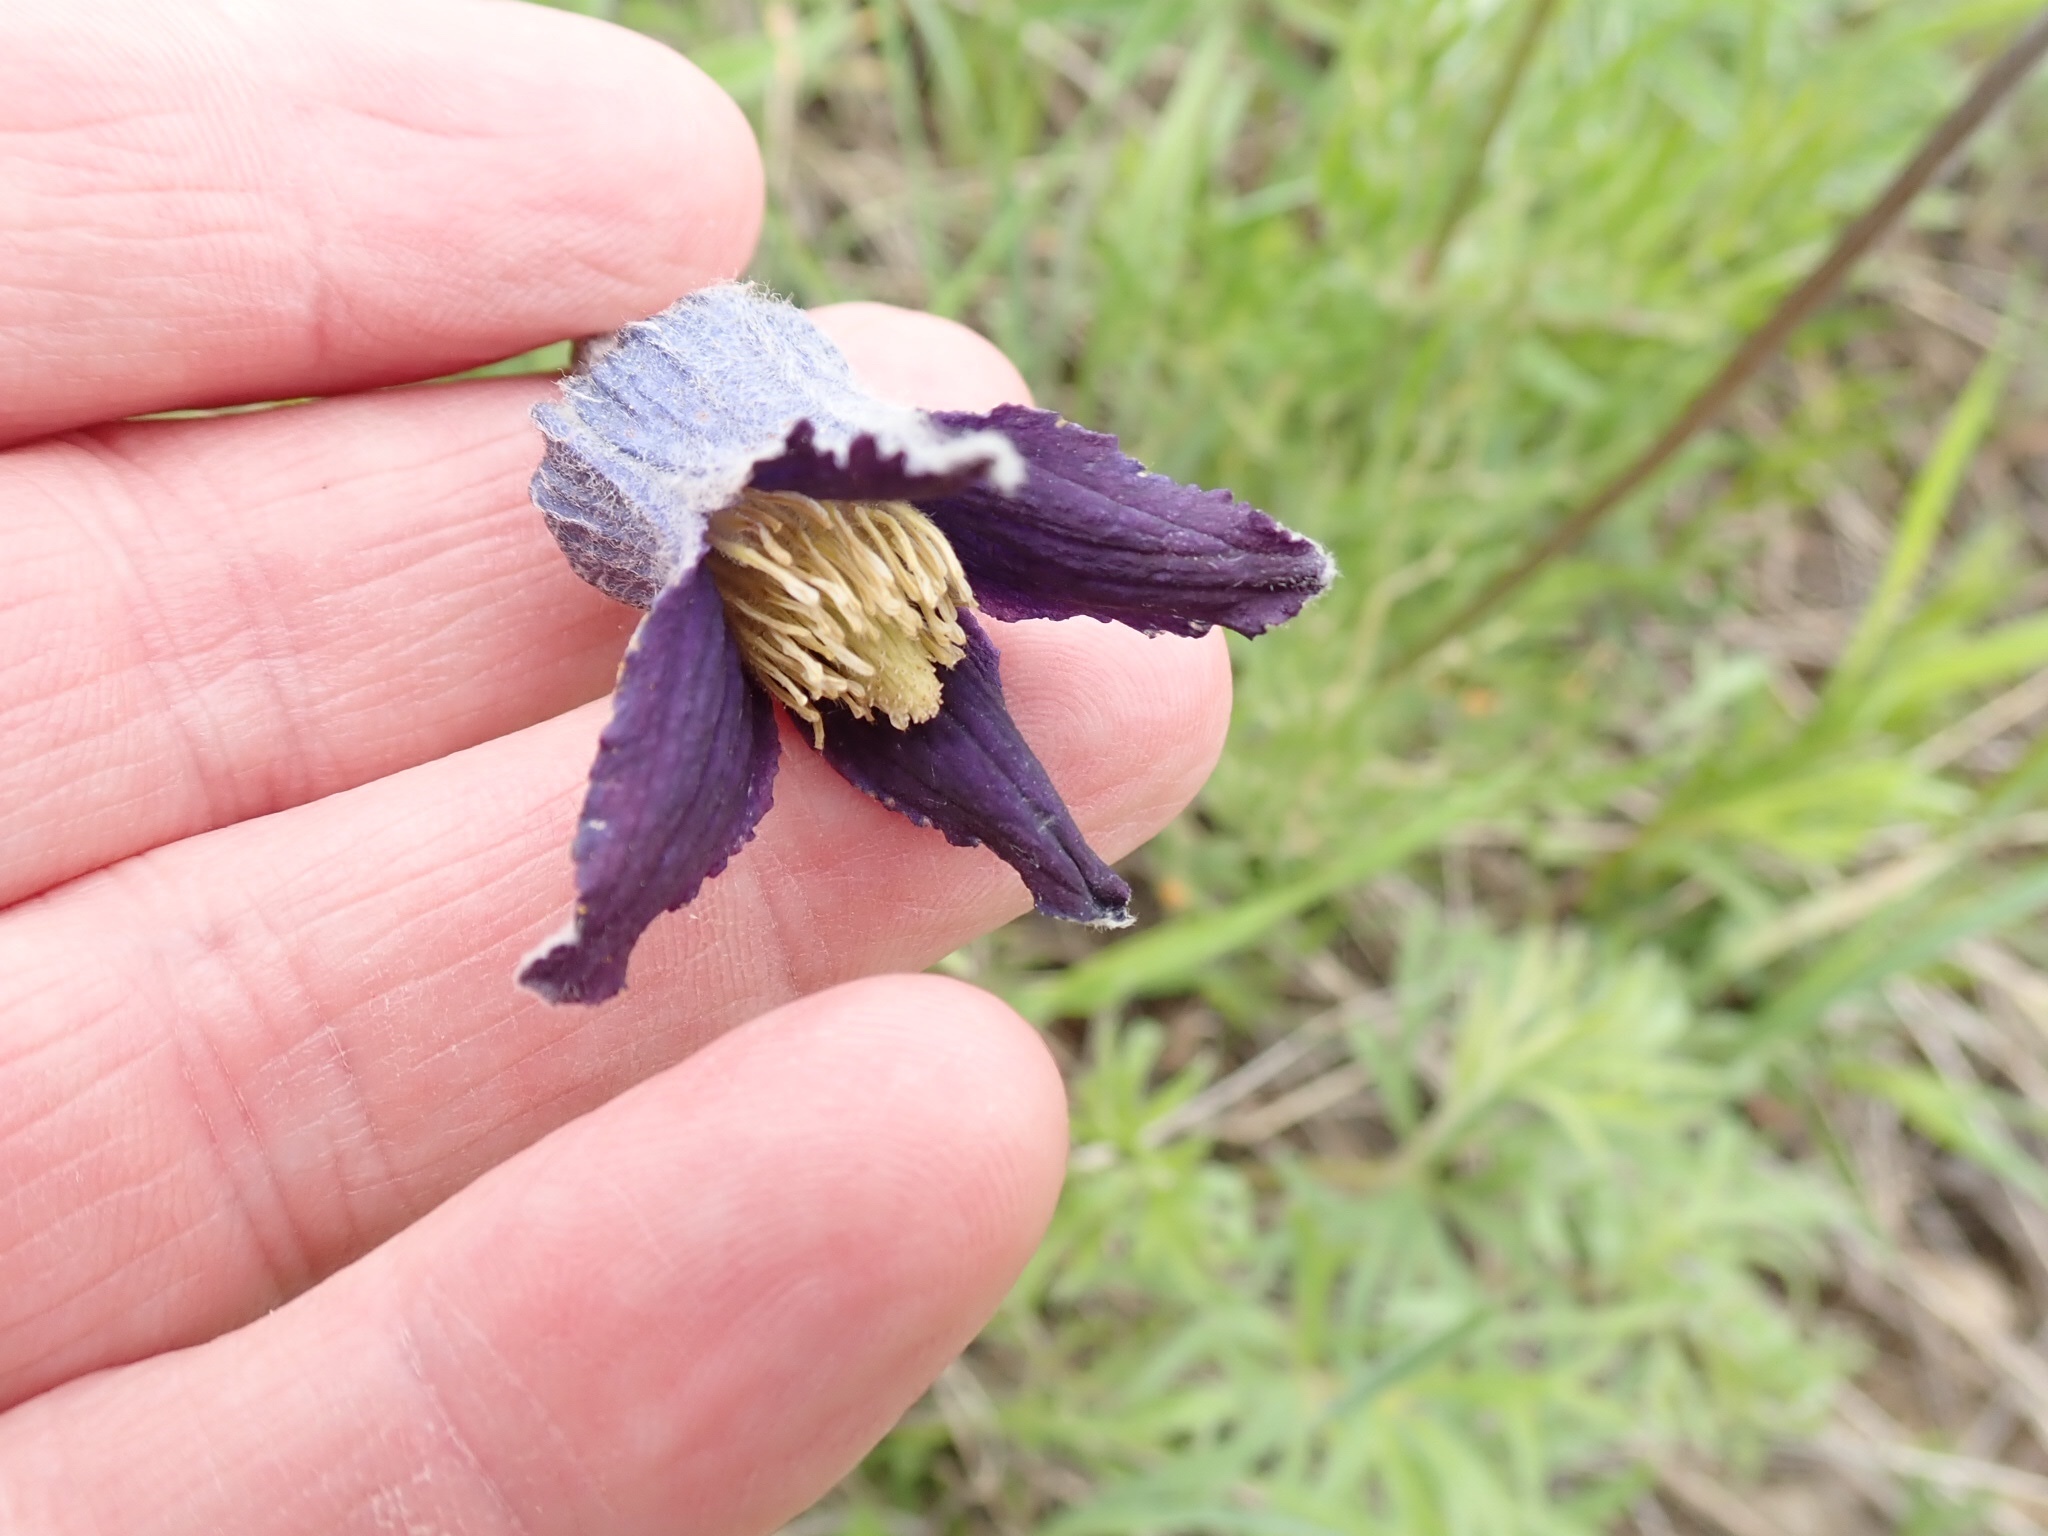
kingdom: Plantae
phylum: Tracheophyta
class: Magnoliopsida
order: Ranunculales
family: Ranunculaceae
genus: Clematis
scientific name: Clematis hirsutissima
